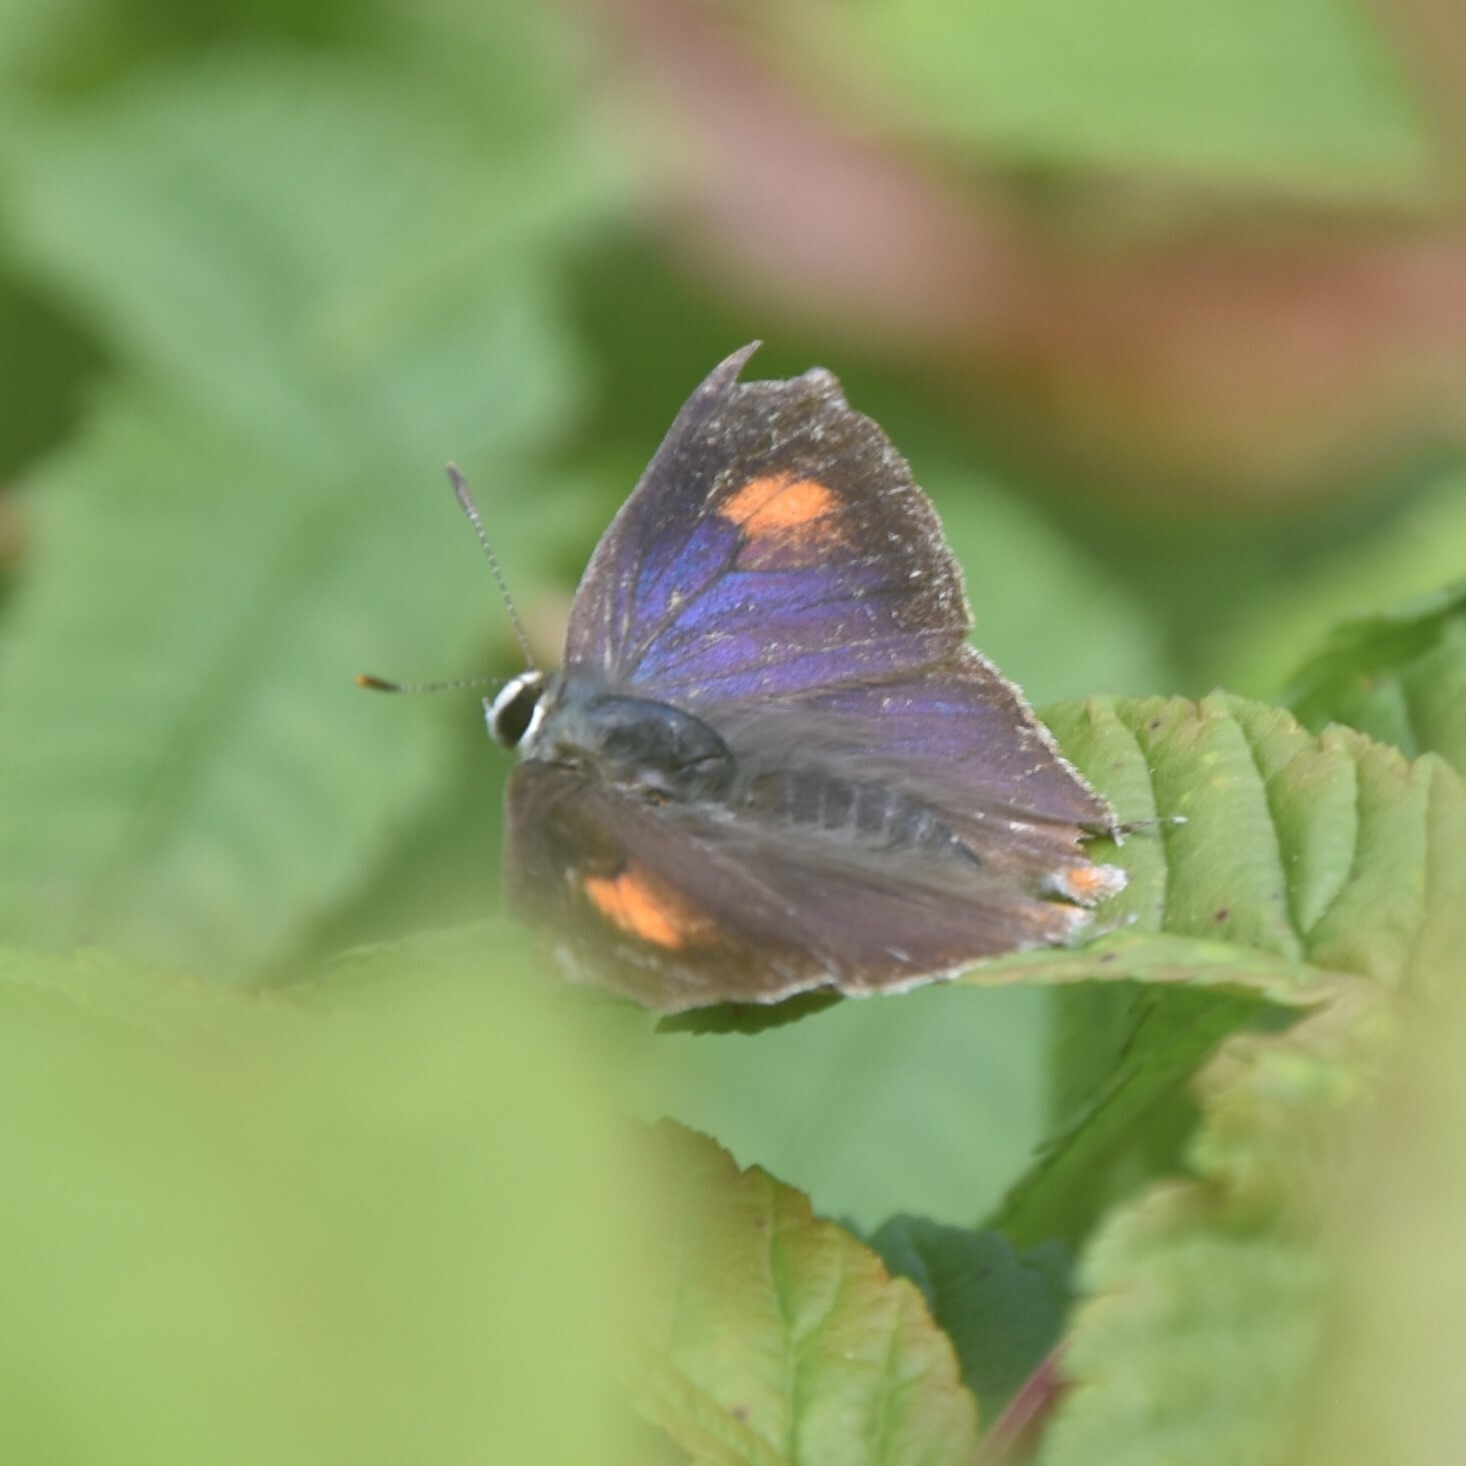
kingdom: Animalia
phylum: Arthropoda
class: Insecta
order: Lepidoptera
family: Lycaenidae
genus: Rapala
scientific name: Rapala nissa
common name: Common flash
